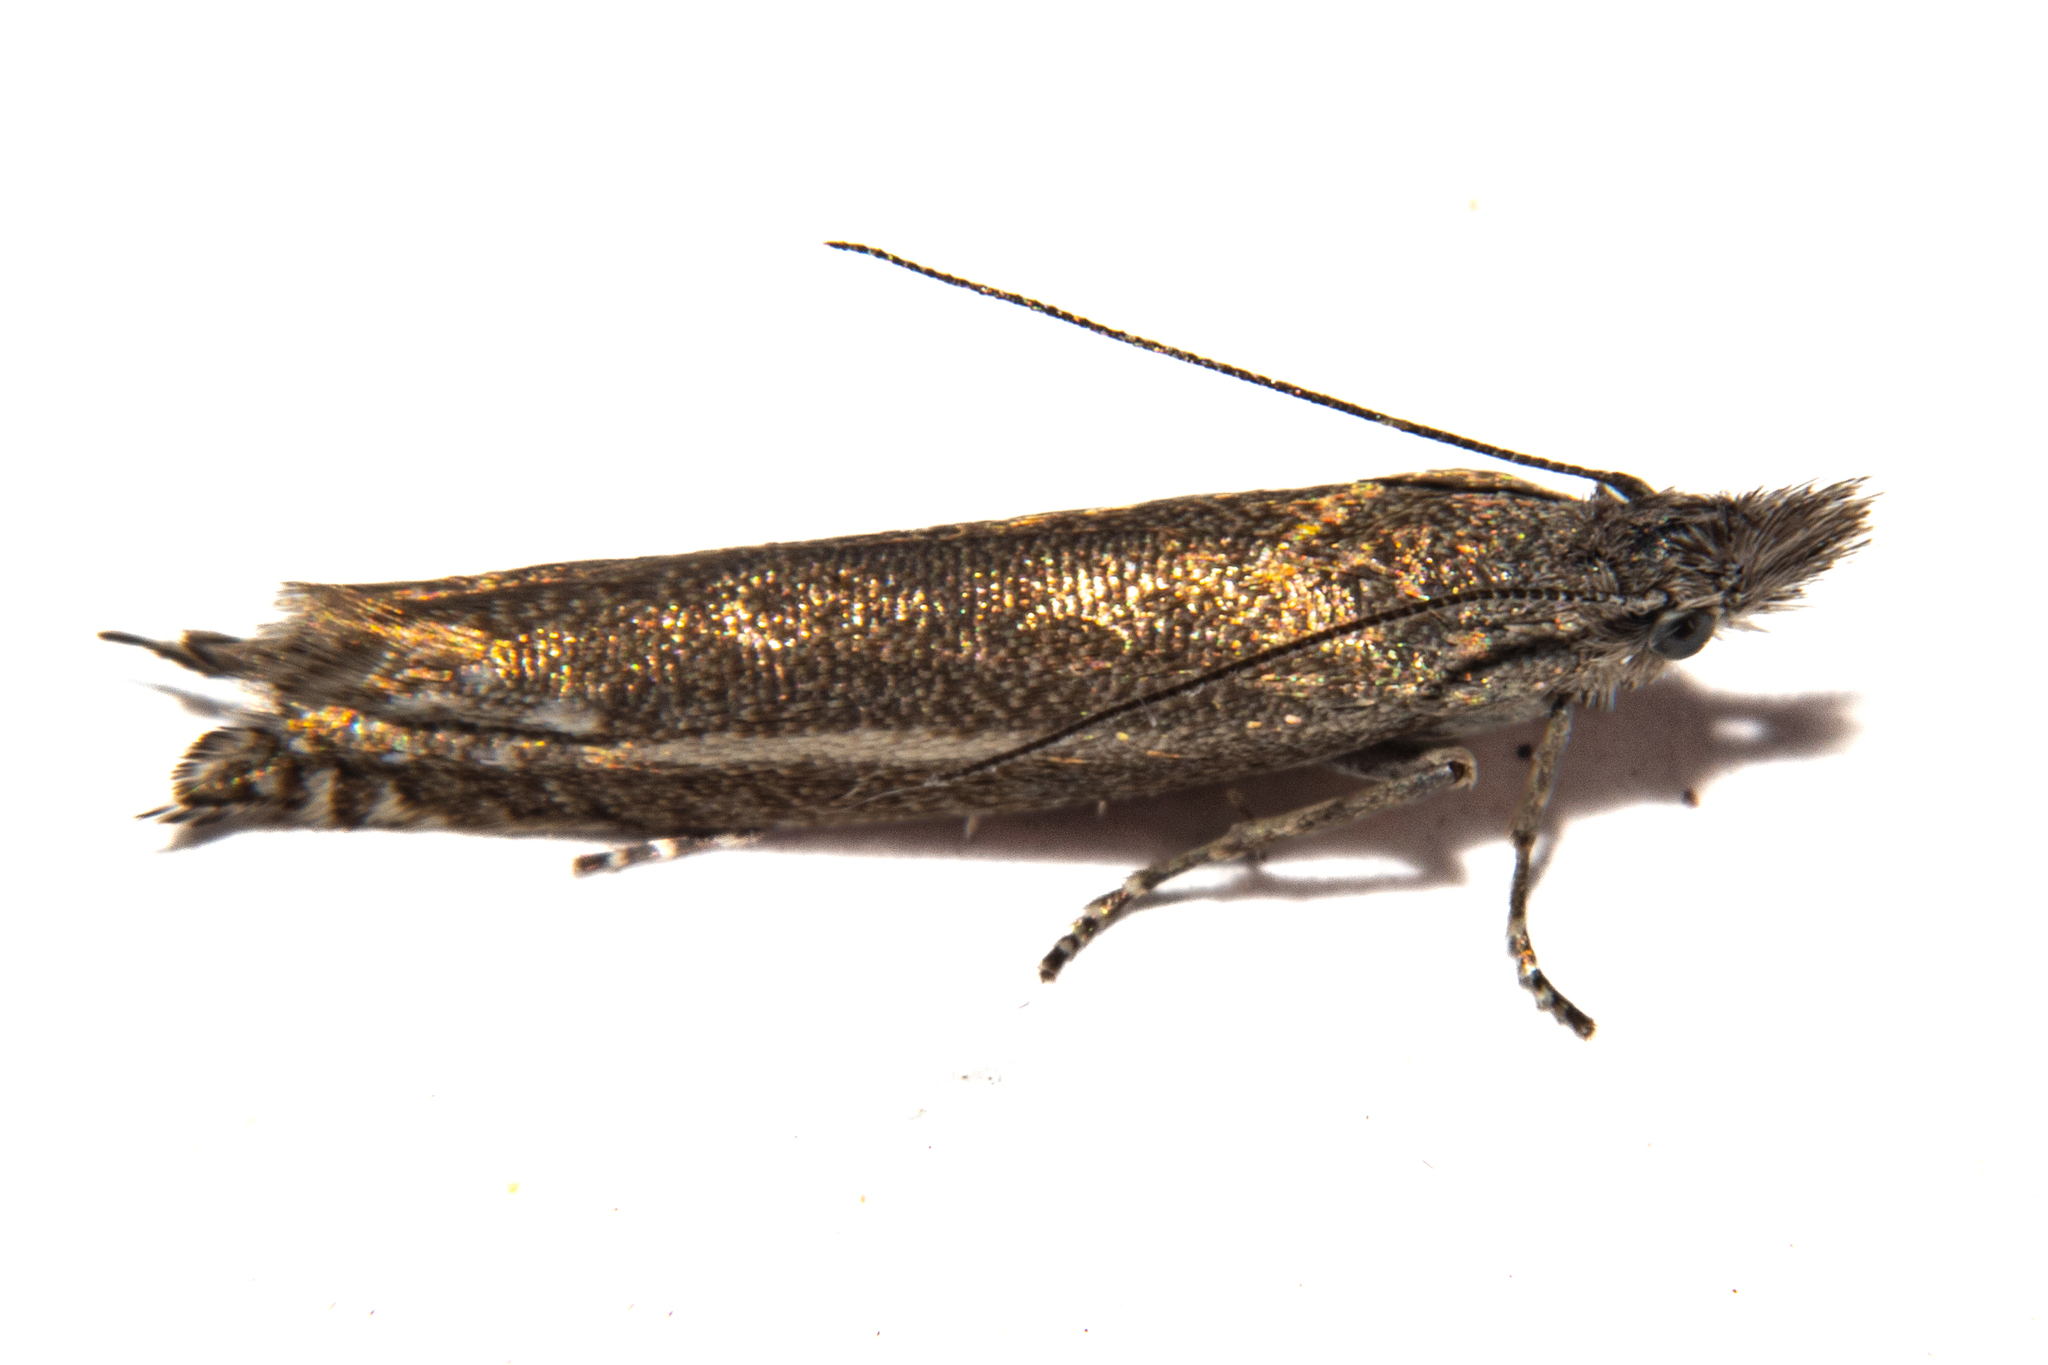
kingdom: Animalia
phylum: Arthropoda
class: Insecta
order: Lepidoptera
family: Glyphipterigidae
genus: Glyphipterix
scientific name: Glyphipterix barbata
